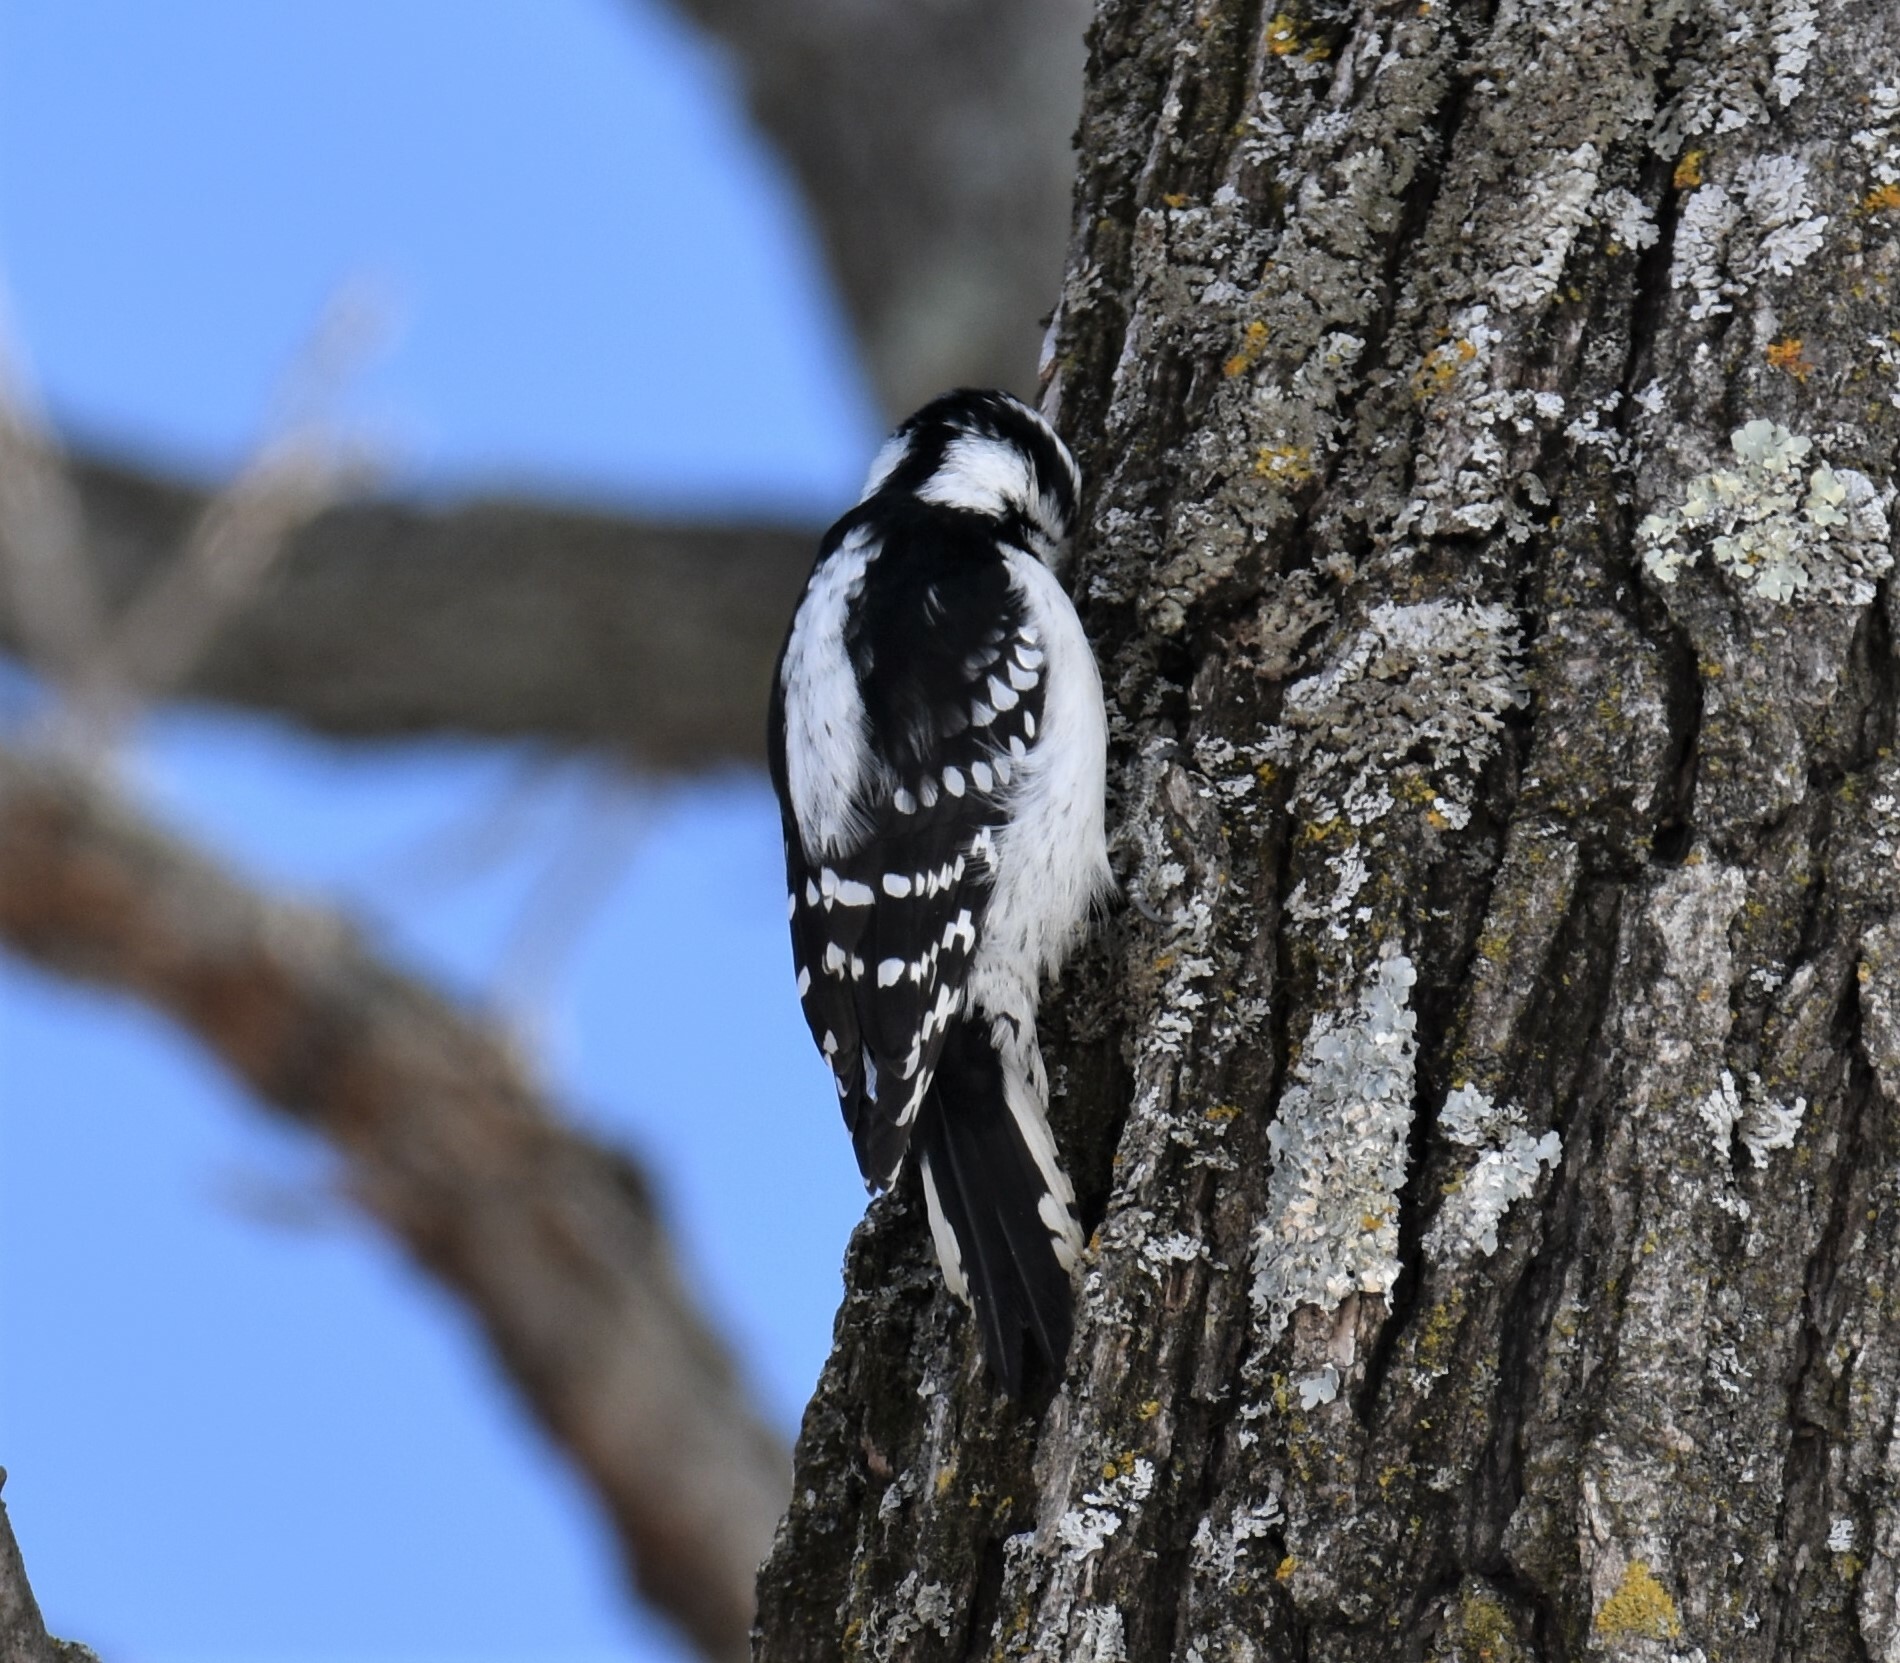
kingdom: Animalia
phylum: Chordata
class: Aves
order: Piciformes
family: Picidae
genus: Dryobates
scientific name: Dryobates pubescens
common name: Downy woodpecker
